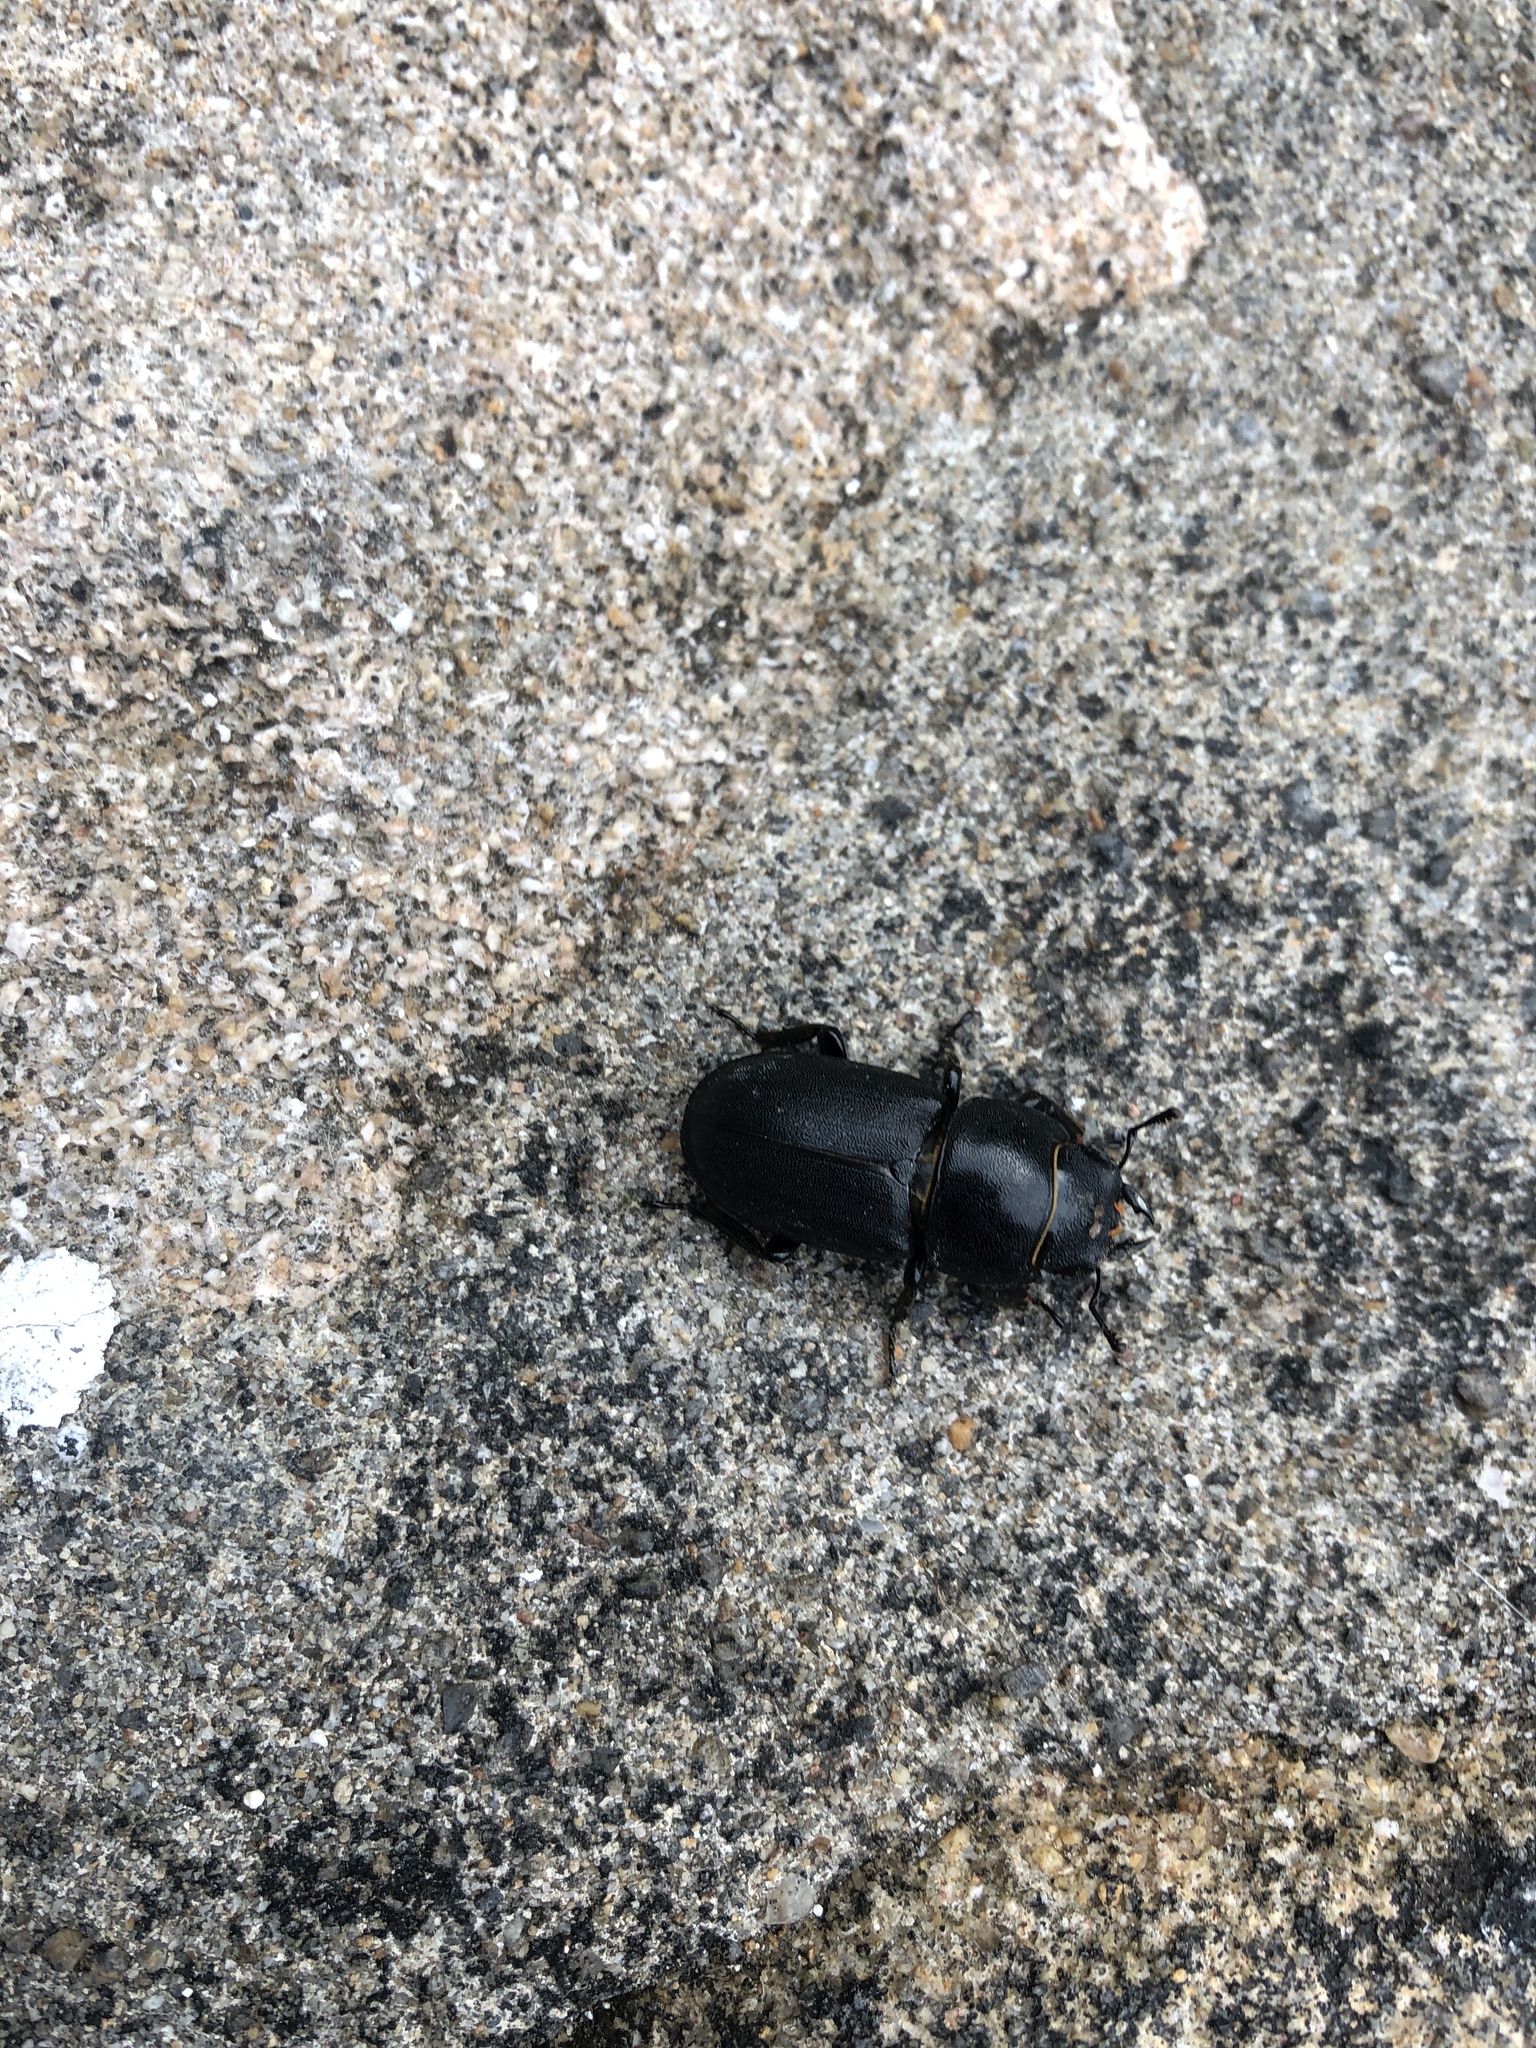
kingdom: Animalia
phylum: Arthropoda
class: Insecta
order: Coleoptera
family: Lucanidae
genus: Dorcus
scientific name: Dorcus parallelipipedus
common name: Lesser stag beetle
